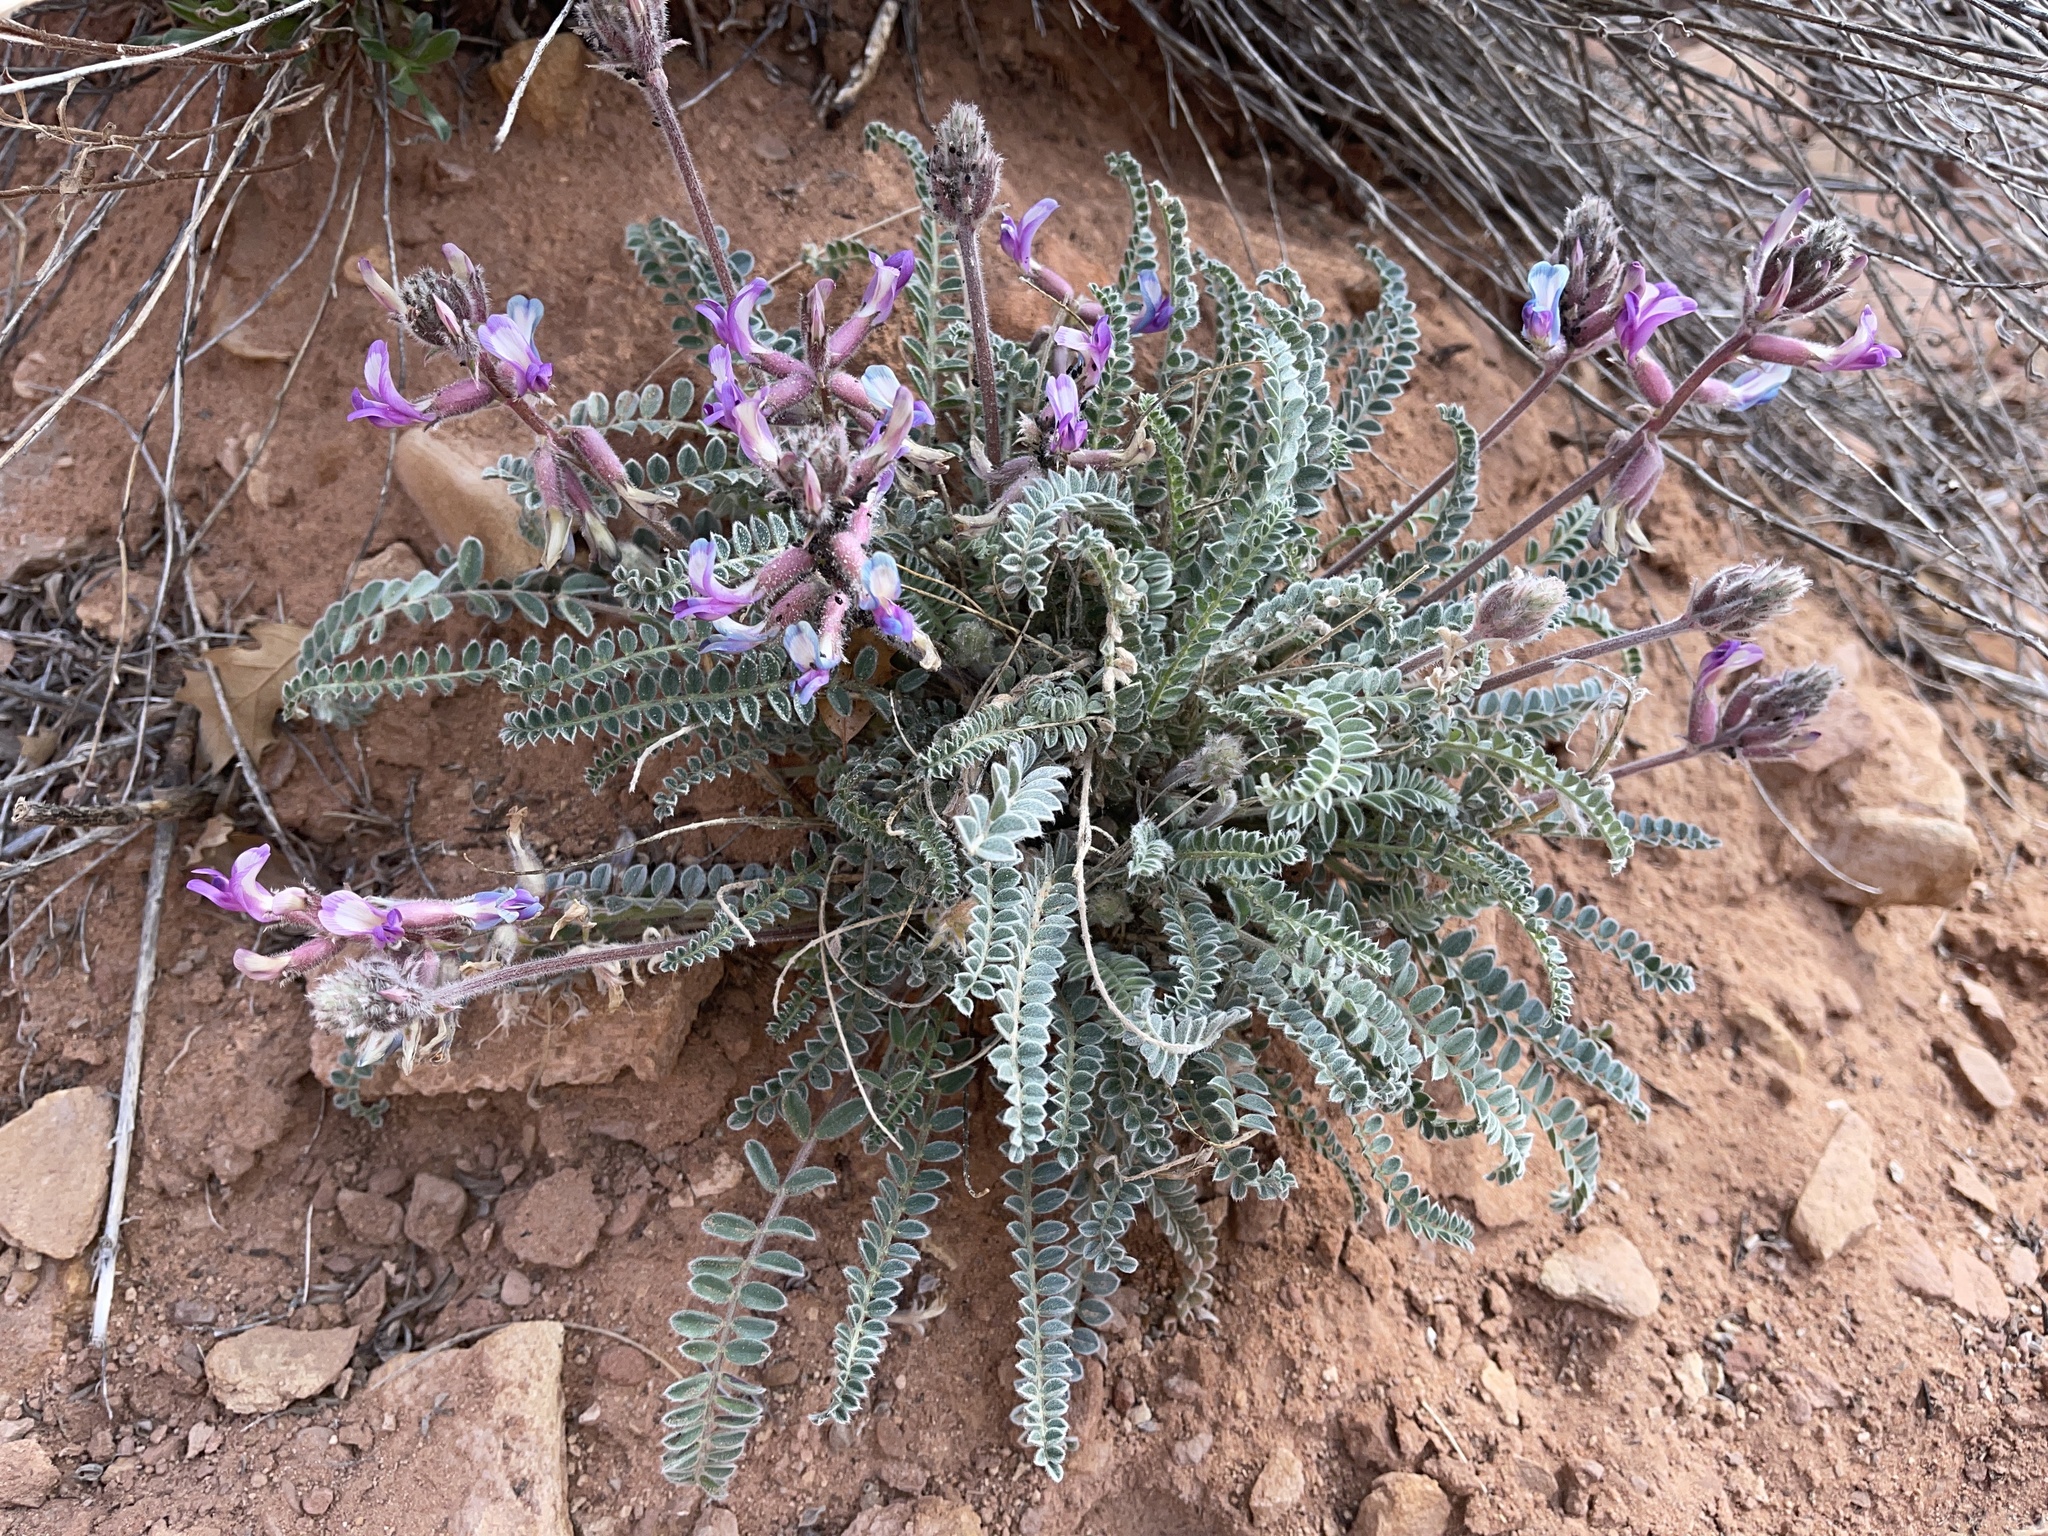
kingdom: Plantae
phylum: Tracheophyta
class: Magnoliopsida
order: Fabales
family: Fabaceae
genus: Astragalus
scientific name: Astragalus mollissimus
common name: Woolly locoweed
